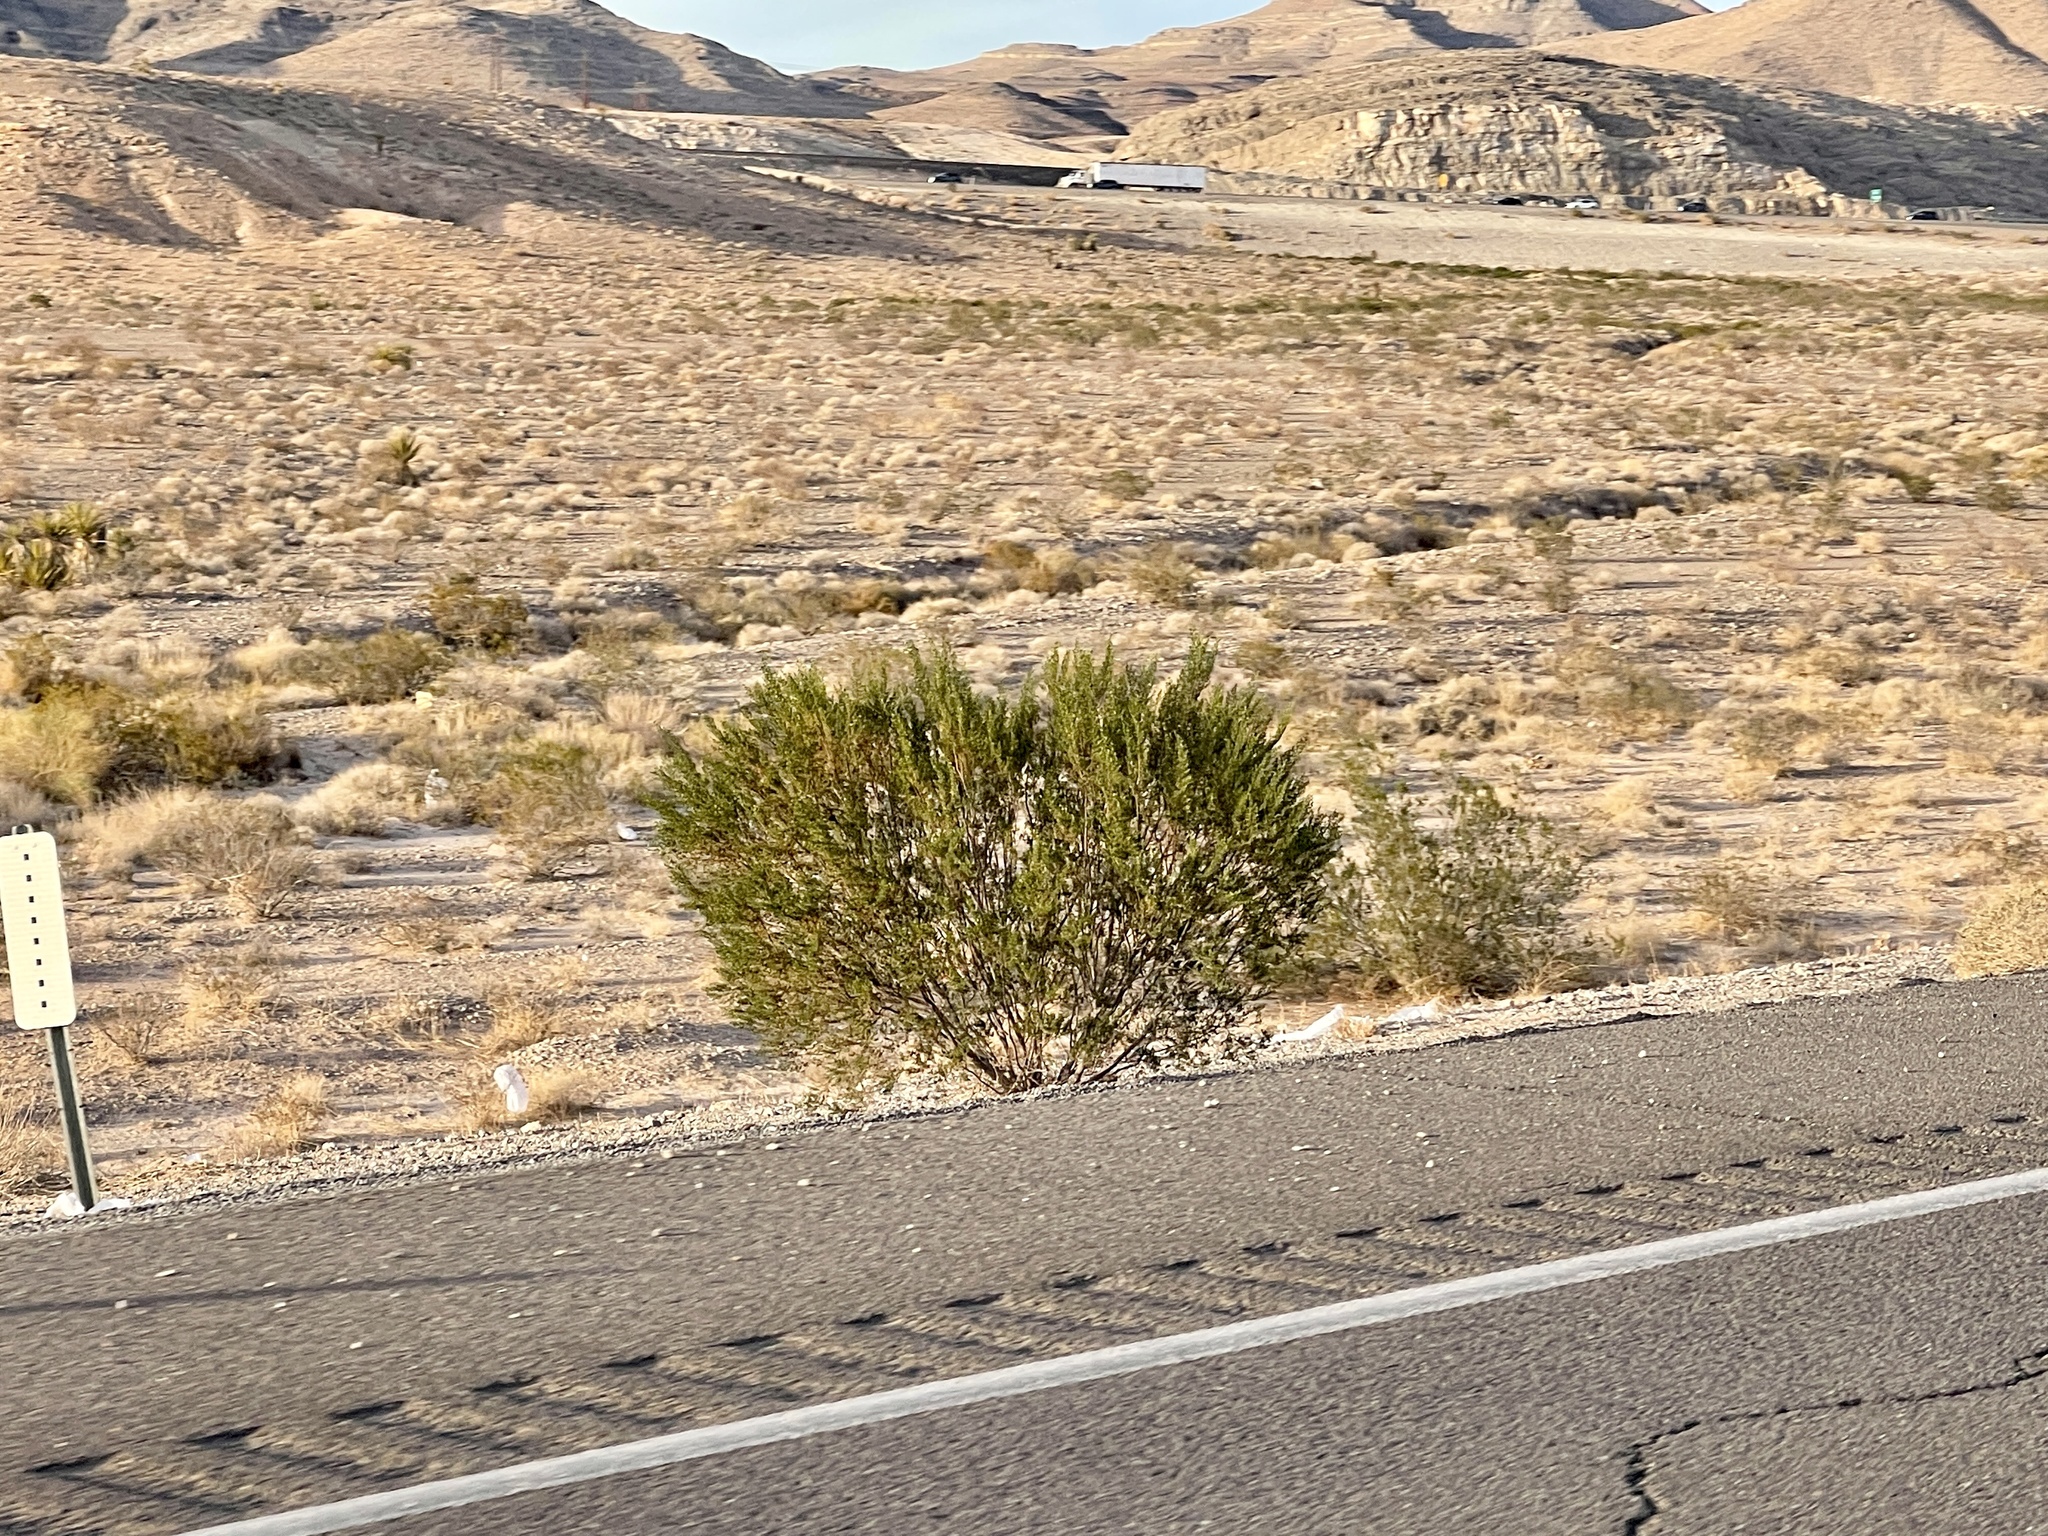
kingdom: Plantae
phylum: Tracheophyta
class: Magnoliopsida
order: Zygophyllales
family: Zygophyllaceae
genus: Larrea
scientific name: Larrea tridentata
